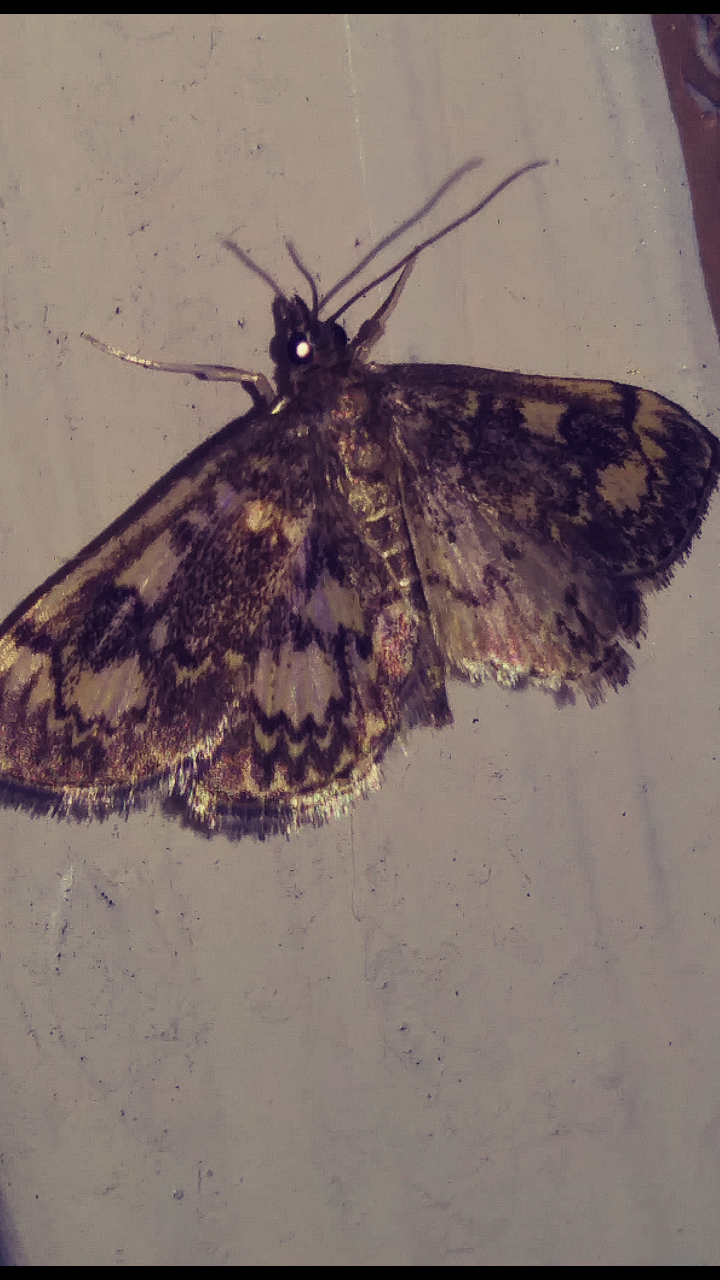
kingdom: Animalia
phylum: Arthropoda
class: Insecta
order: Lepidoptera
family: Crambidae
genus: Anania
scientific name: Anania
